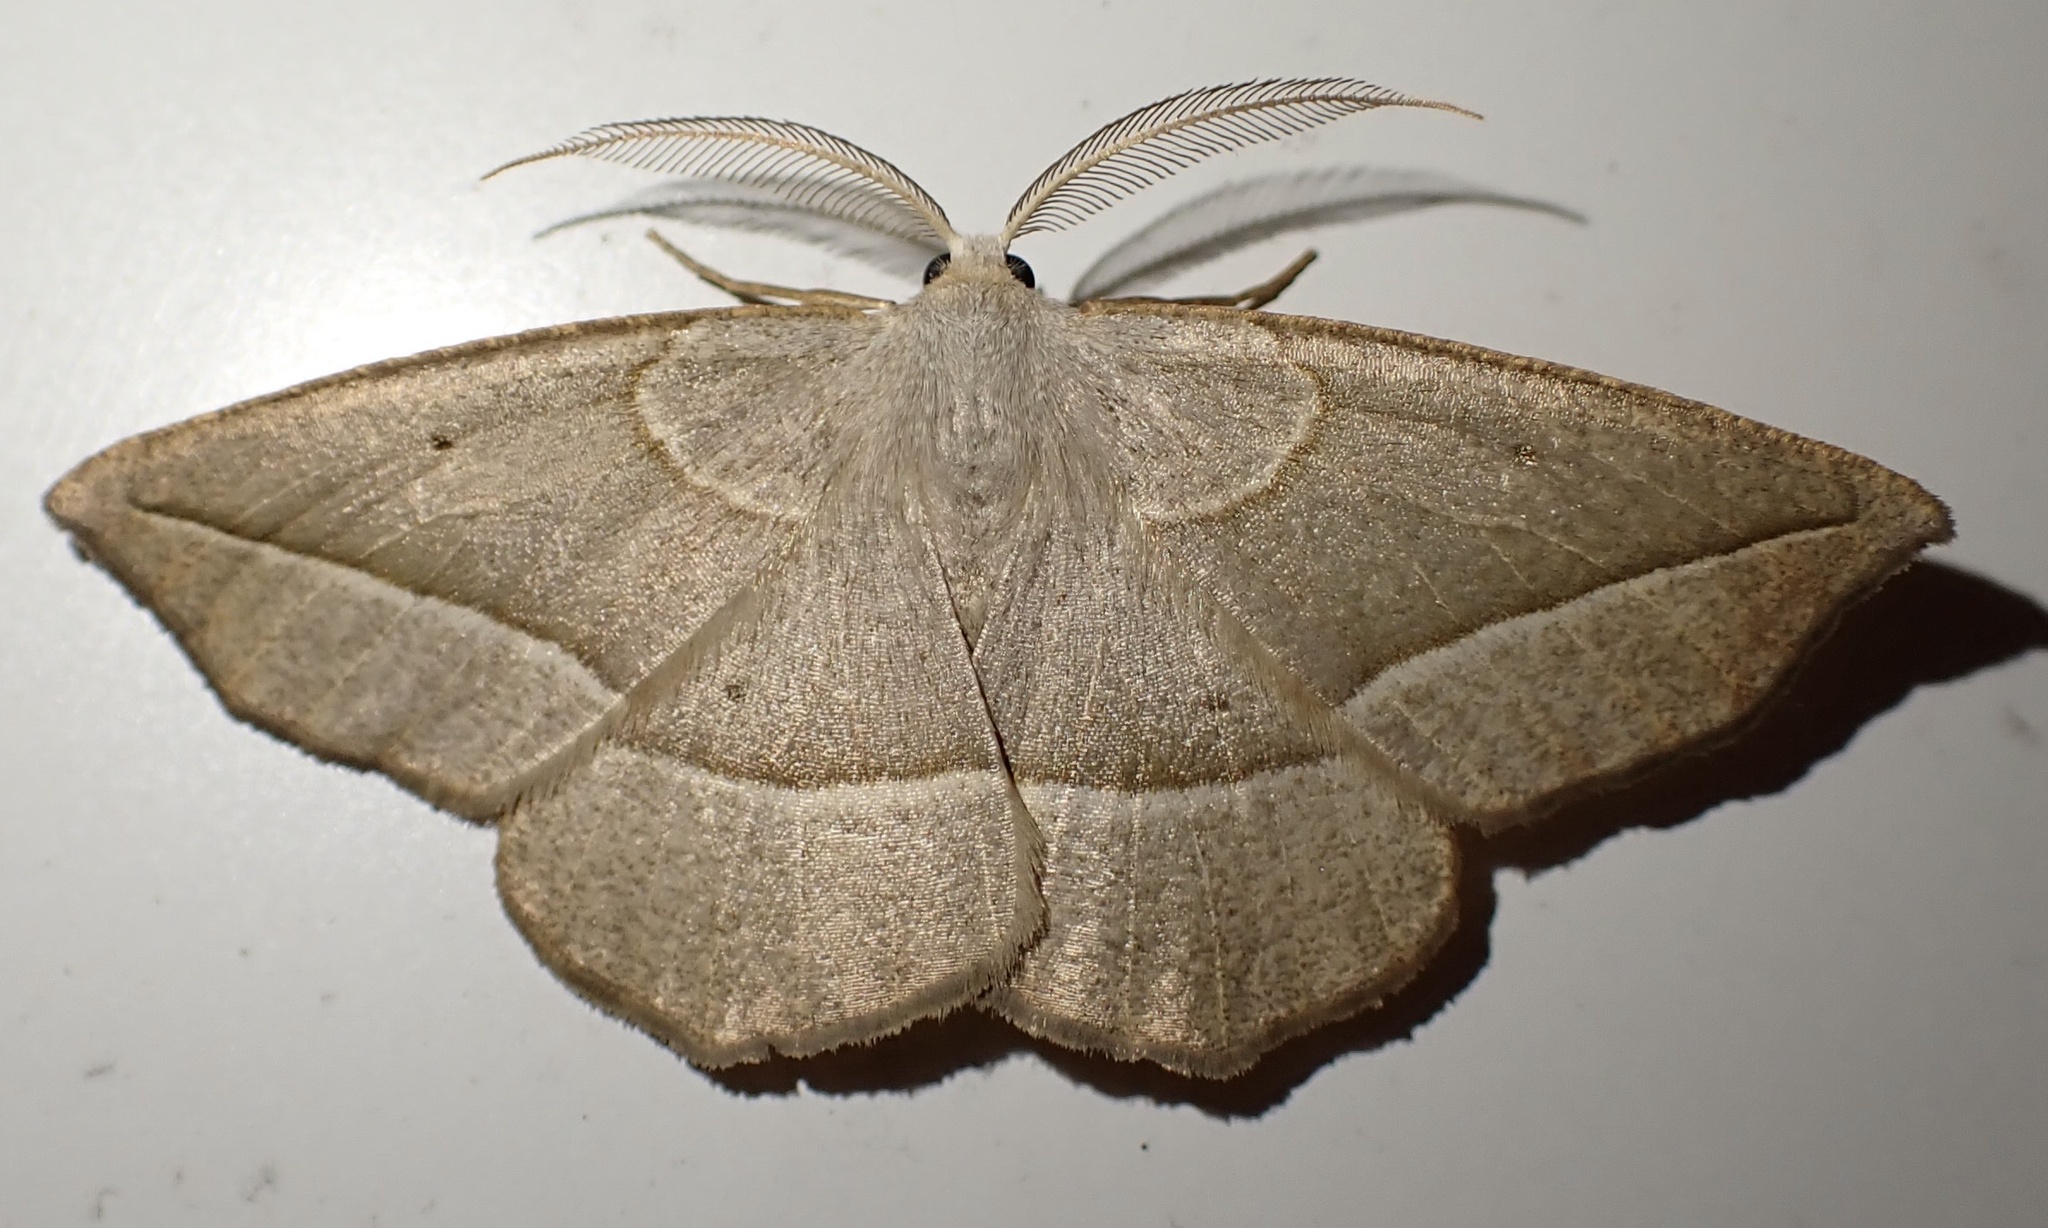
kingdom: Animalia
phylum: Arthropoda
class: Insecta
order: Lepidoptera
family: Geometridae
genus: Eusarca
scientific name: Eusarca confusaria
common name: Confused eusarca
